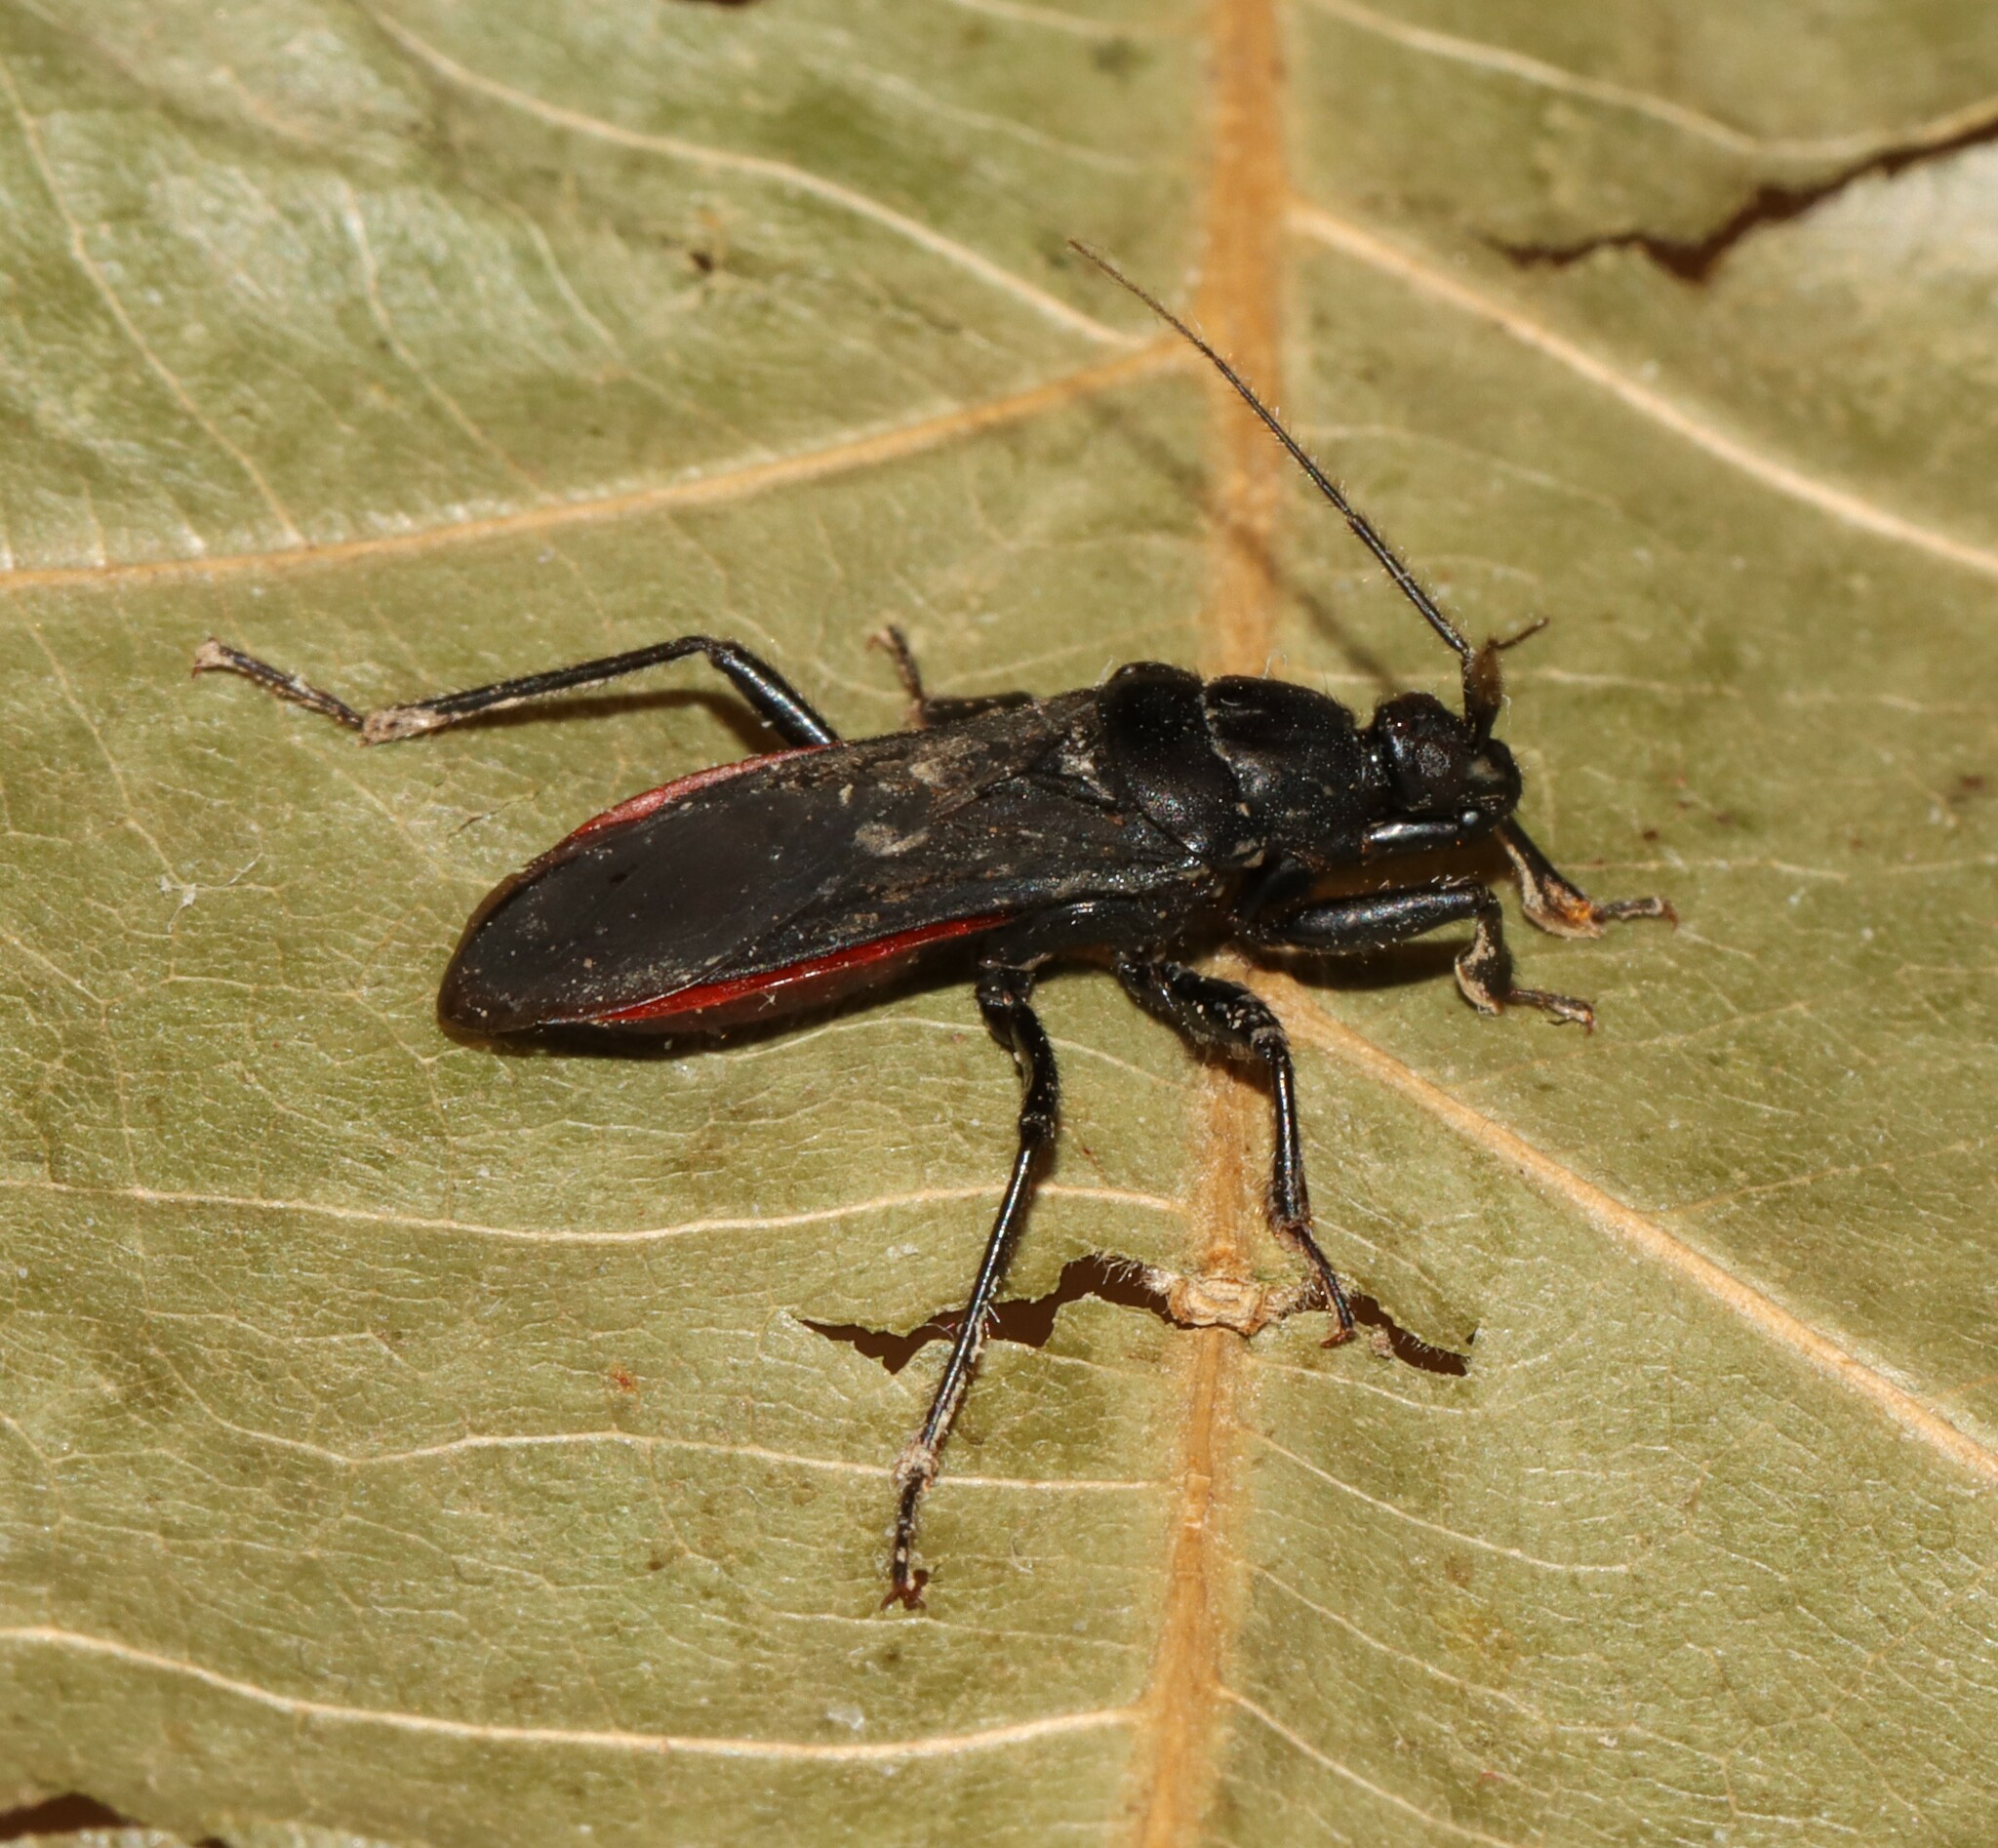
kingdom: Animalia
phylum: Arthropoda
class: Insecta
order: Hemiptera
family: Reduviidae
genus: Melanolestes
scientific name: Melanolestes picipes
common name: Assassin bug
